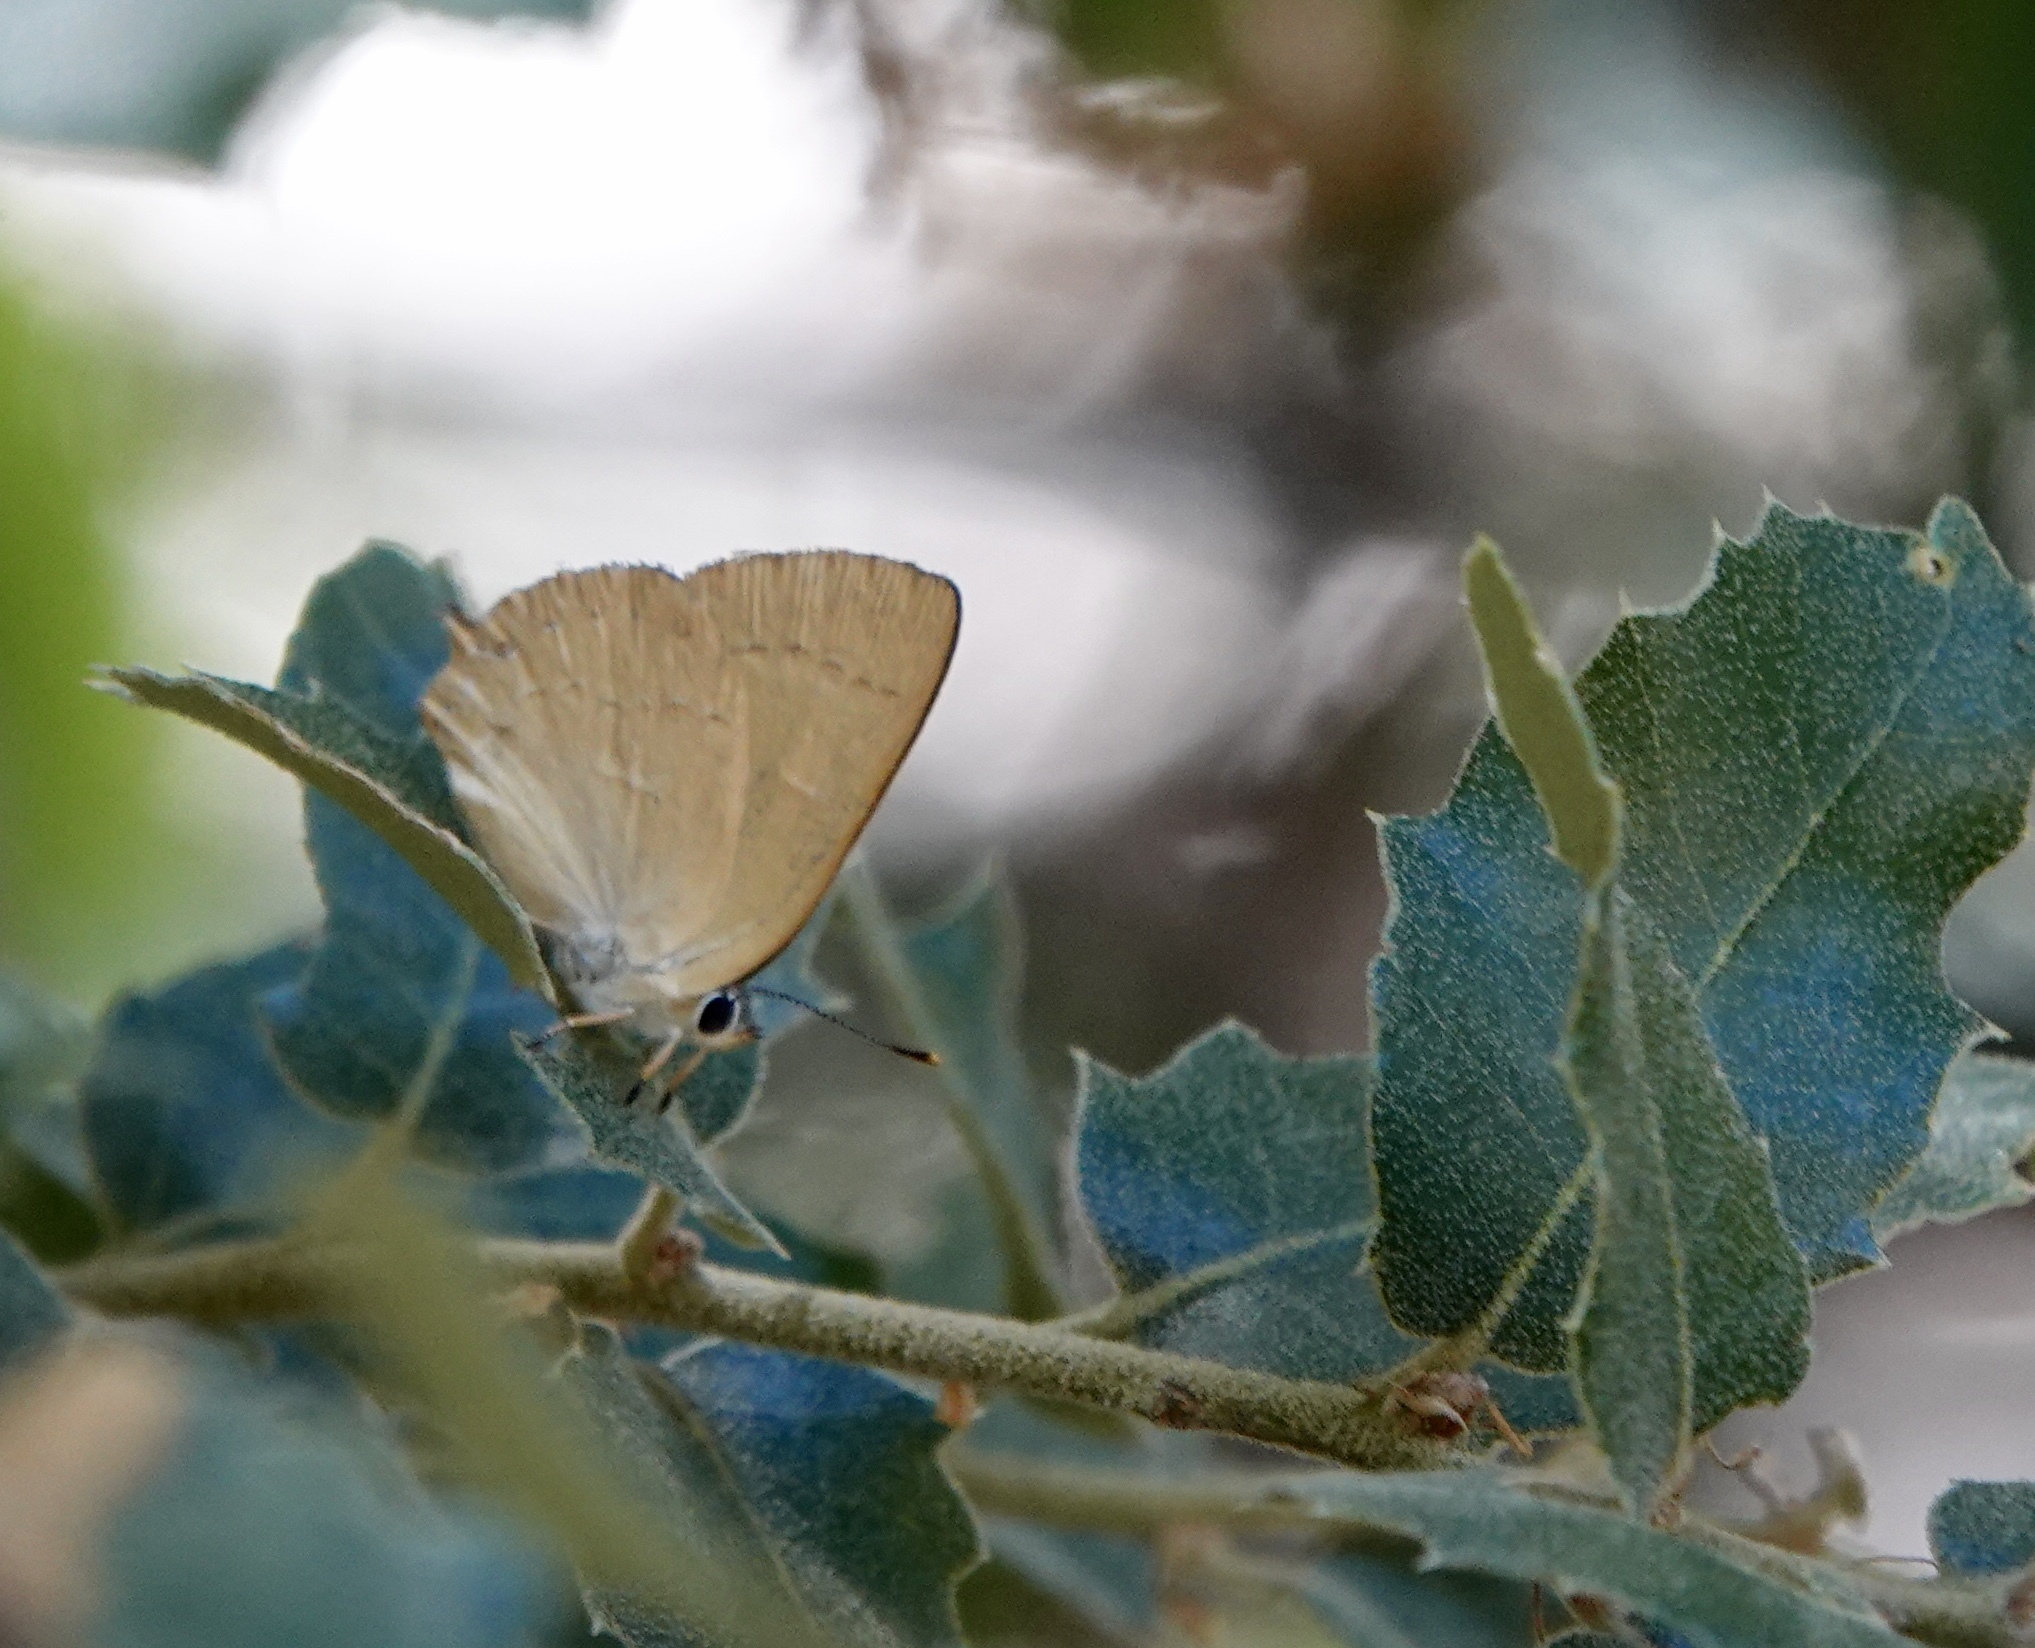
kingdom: Animalia
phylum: Arthropoda
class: Insecta
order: Lepidoptera
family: Lycaenidae
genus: Habrodais
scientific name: Habrodais grunus
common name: Golden hairstreak
